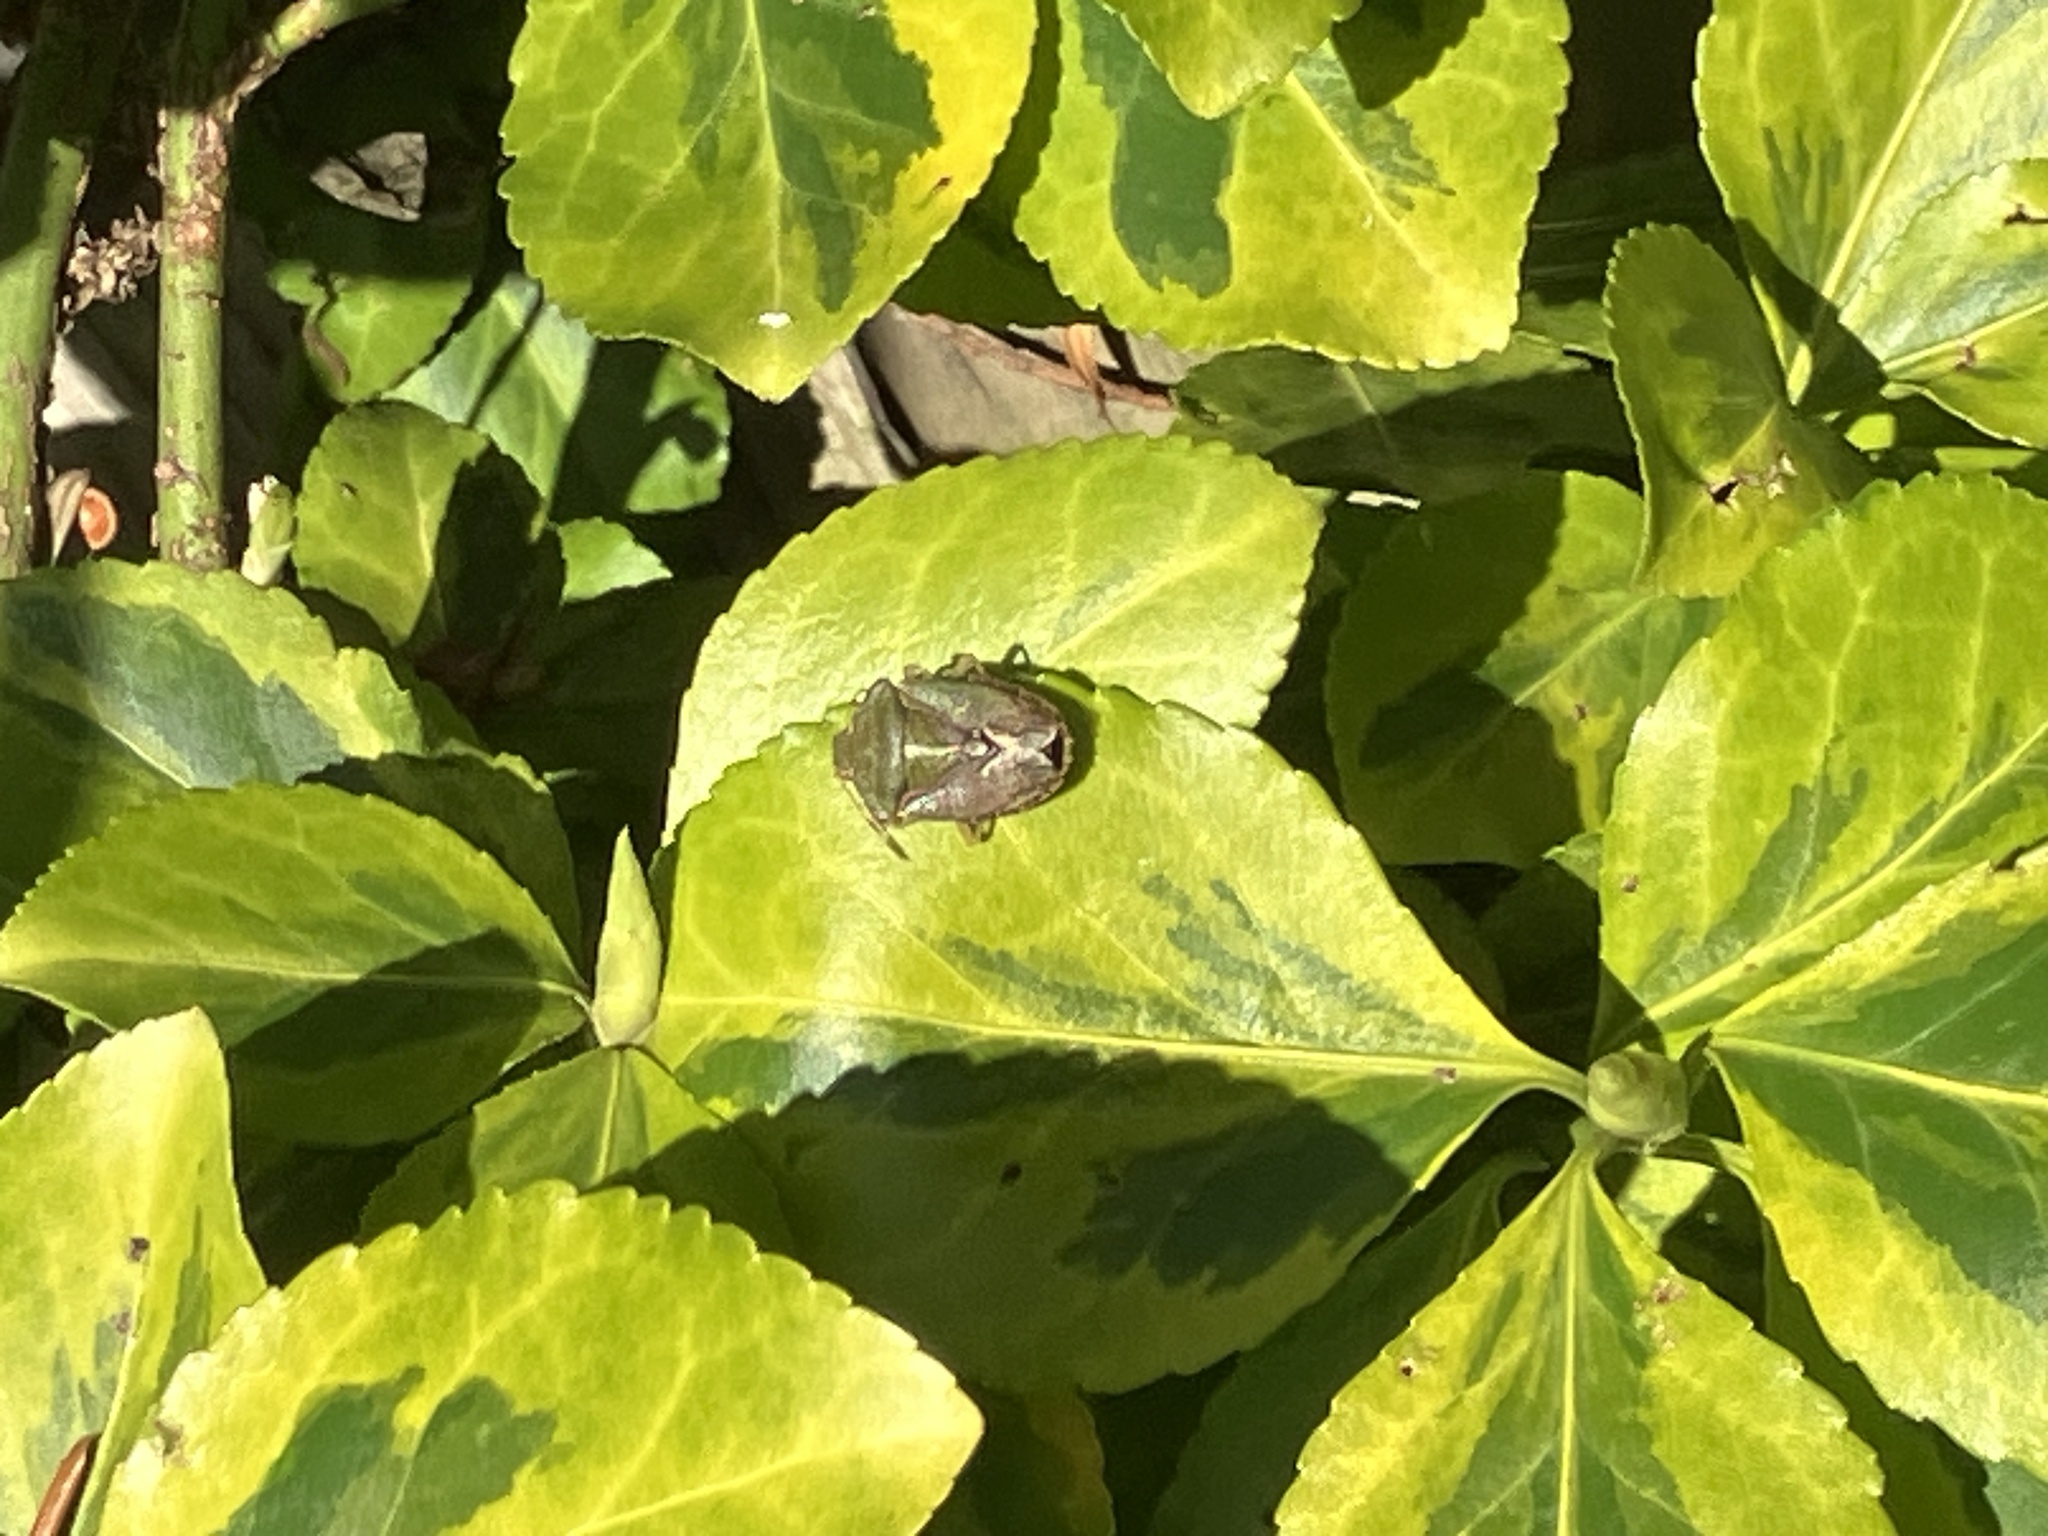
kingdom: Animalia
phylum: Arthropoda
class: Insecta
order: Hemiptera
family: Pentatomidae
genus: Palomena
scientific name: Palomena prasina
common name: Green shieldbug
